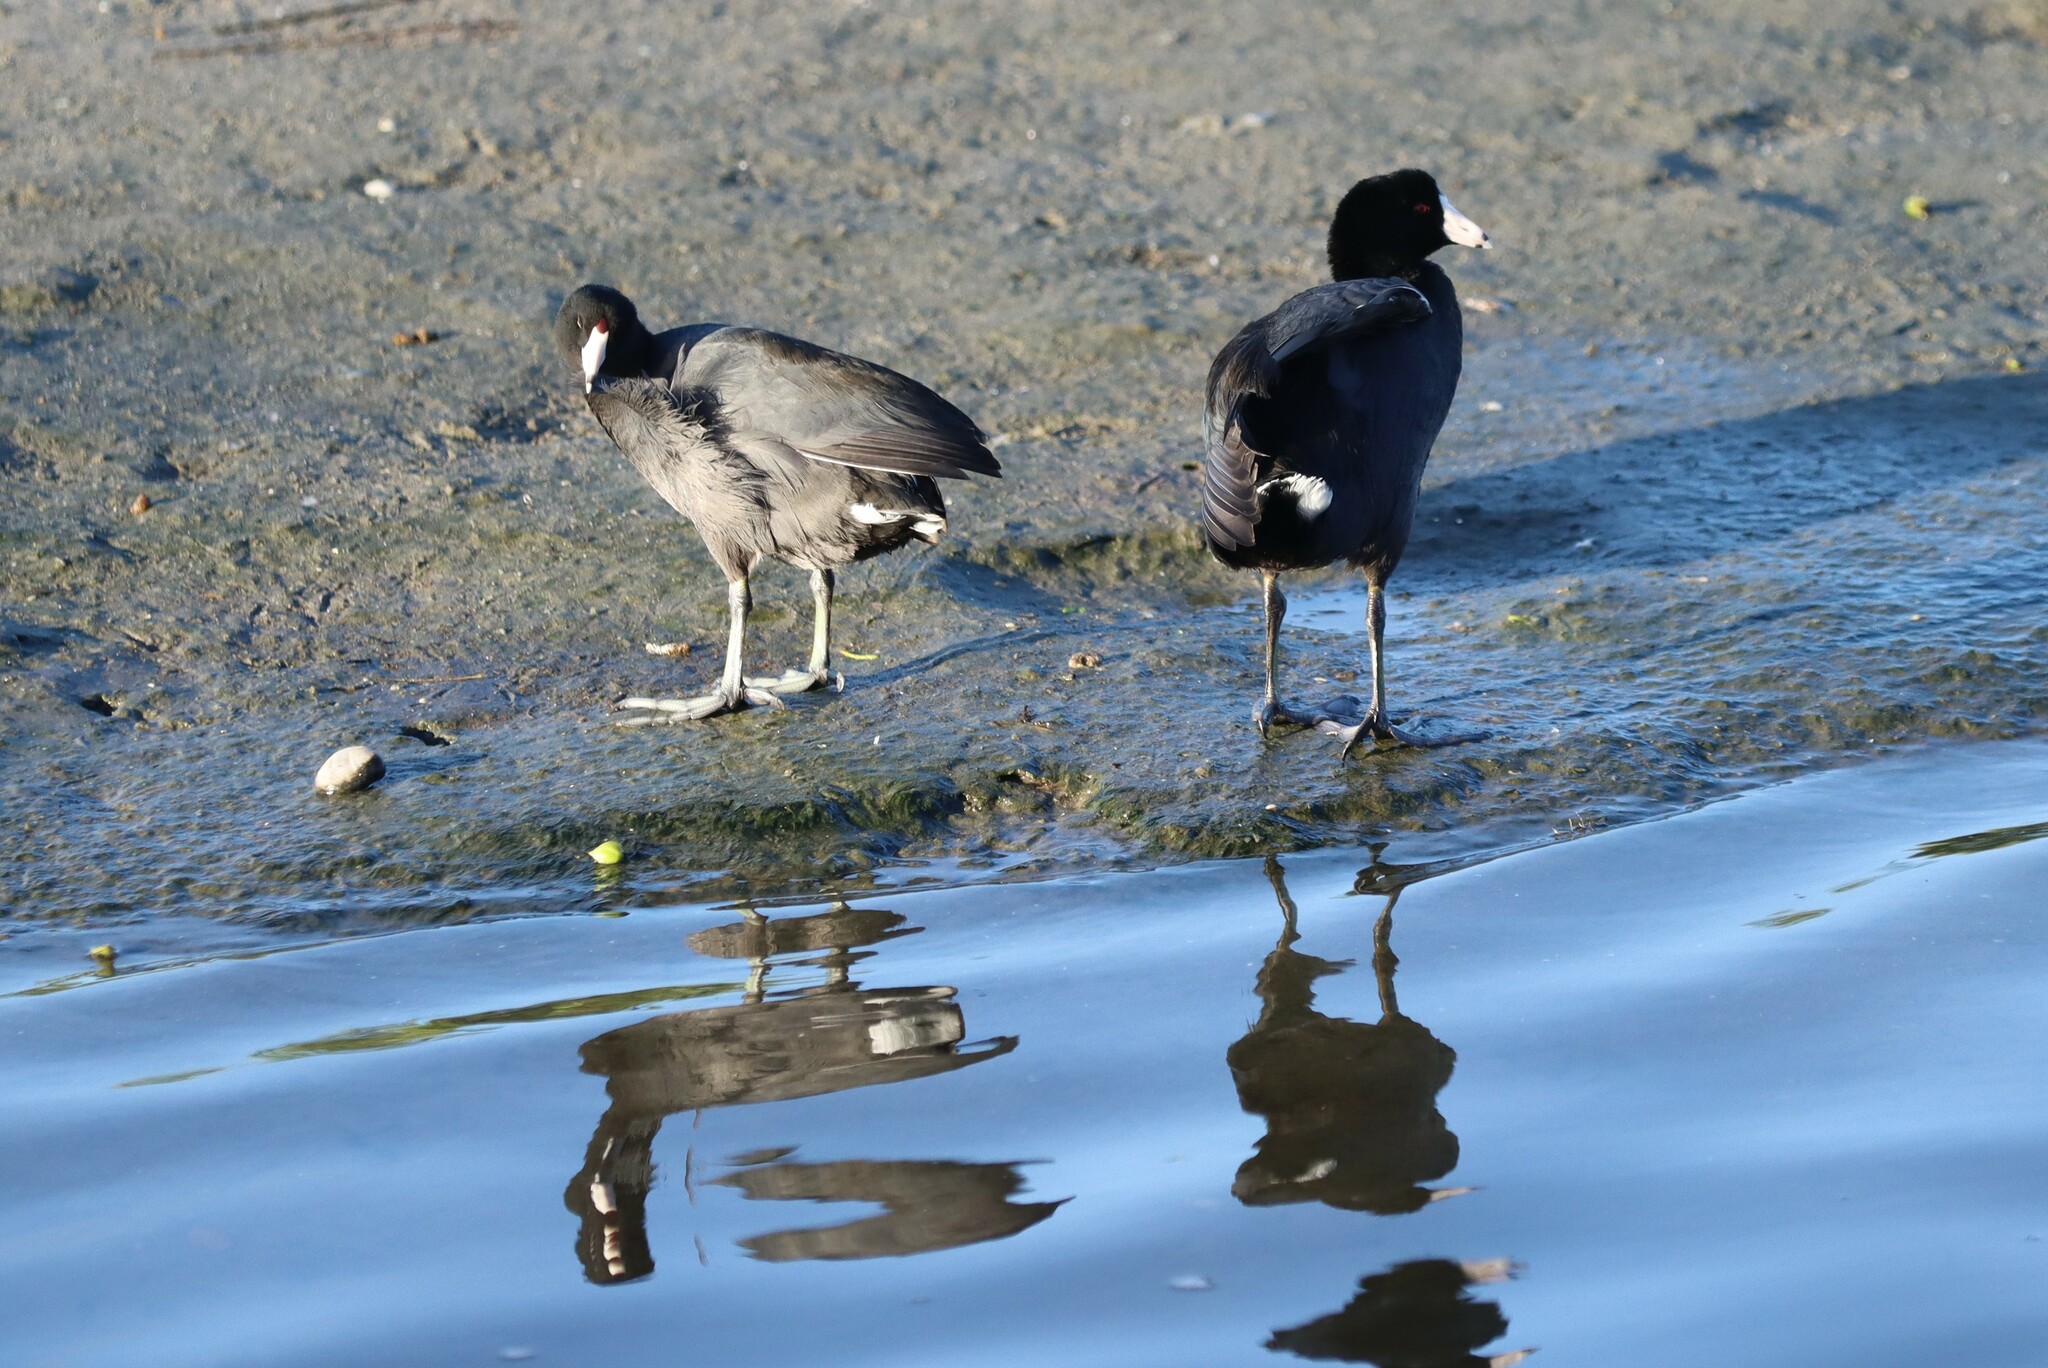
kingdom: Animalia
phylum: Chordata
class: Aves
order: Gruiformes
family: Rallidae
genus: Fulica
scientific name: Fulica americana
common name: American coot
